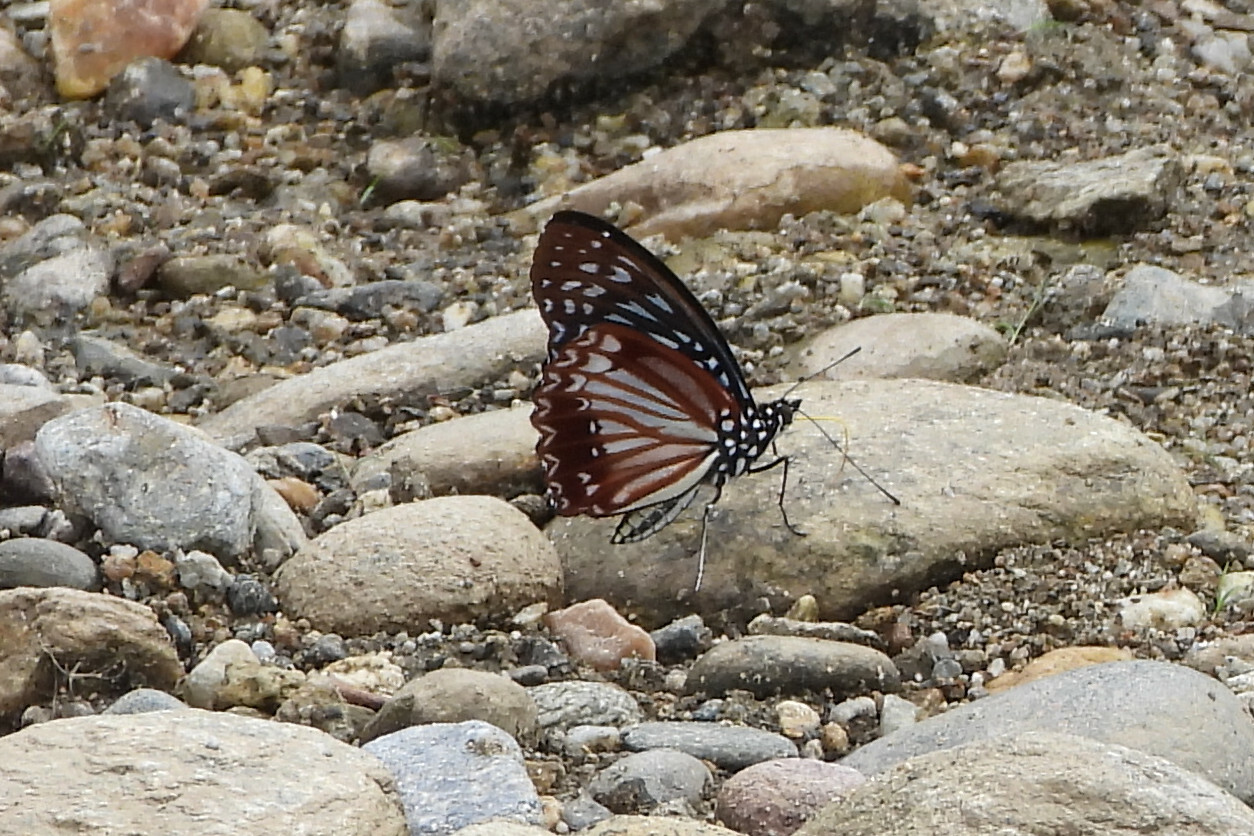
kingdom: Animalia
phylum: Arthropoda
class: Insecta
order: Lepidoptera
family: Nymphalidae
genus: Hestinalis
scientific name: Hestinalis nama
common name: Circe
